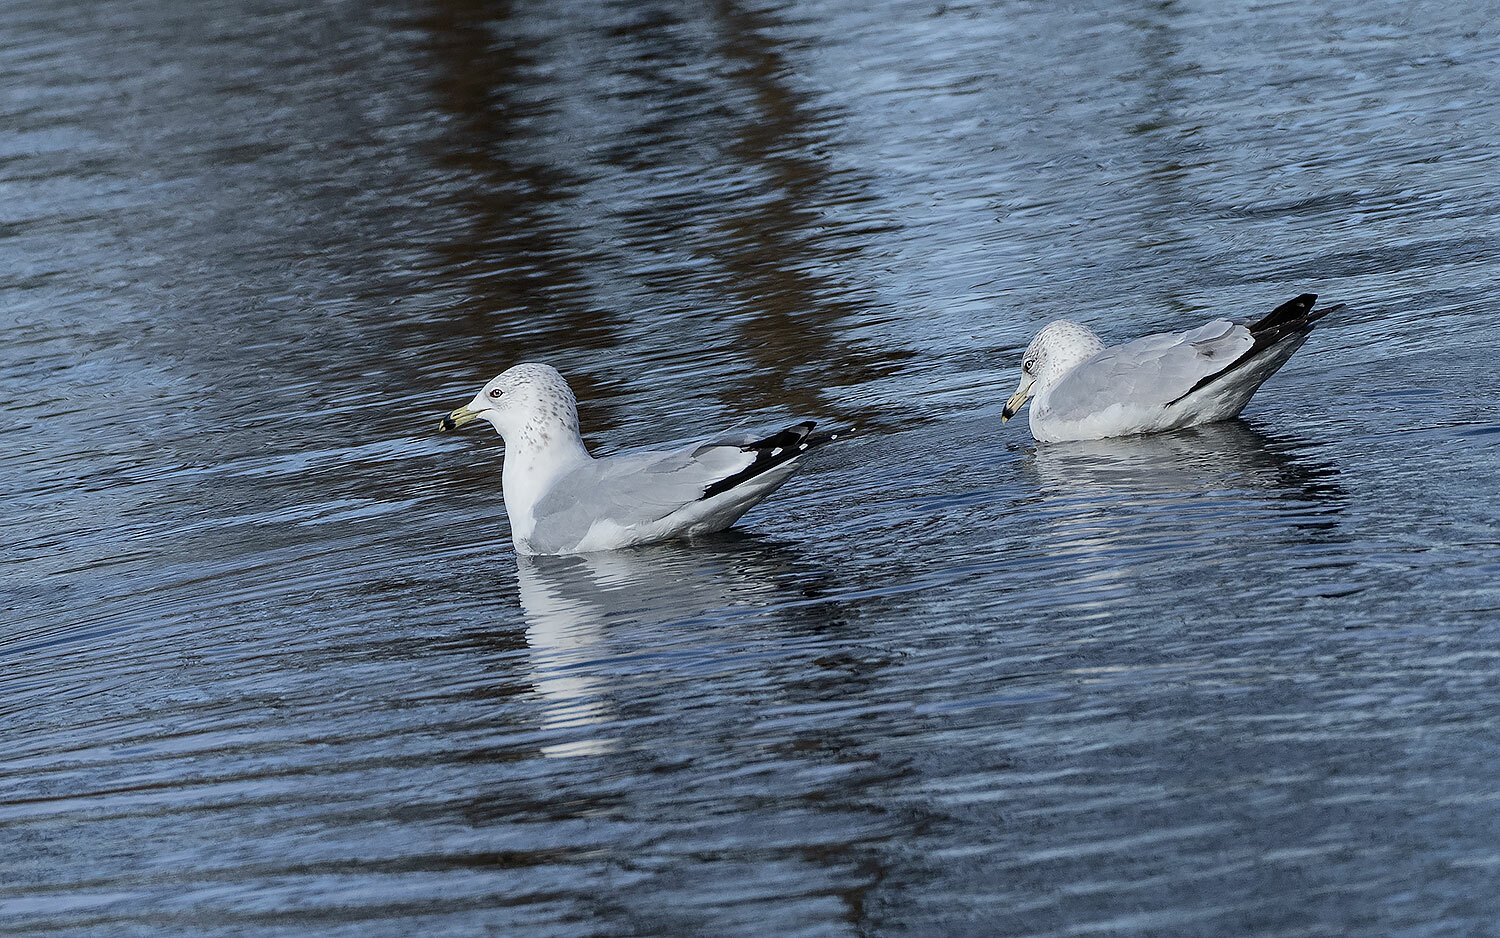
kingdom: Animalia
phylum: Chordata
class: Aves
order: Charadriiformes
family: Laridae
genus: Larus
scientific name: Larus delawarensis
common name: Ring-billed gull
